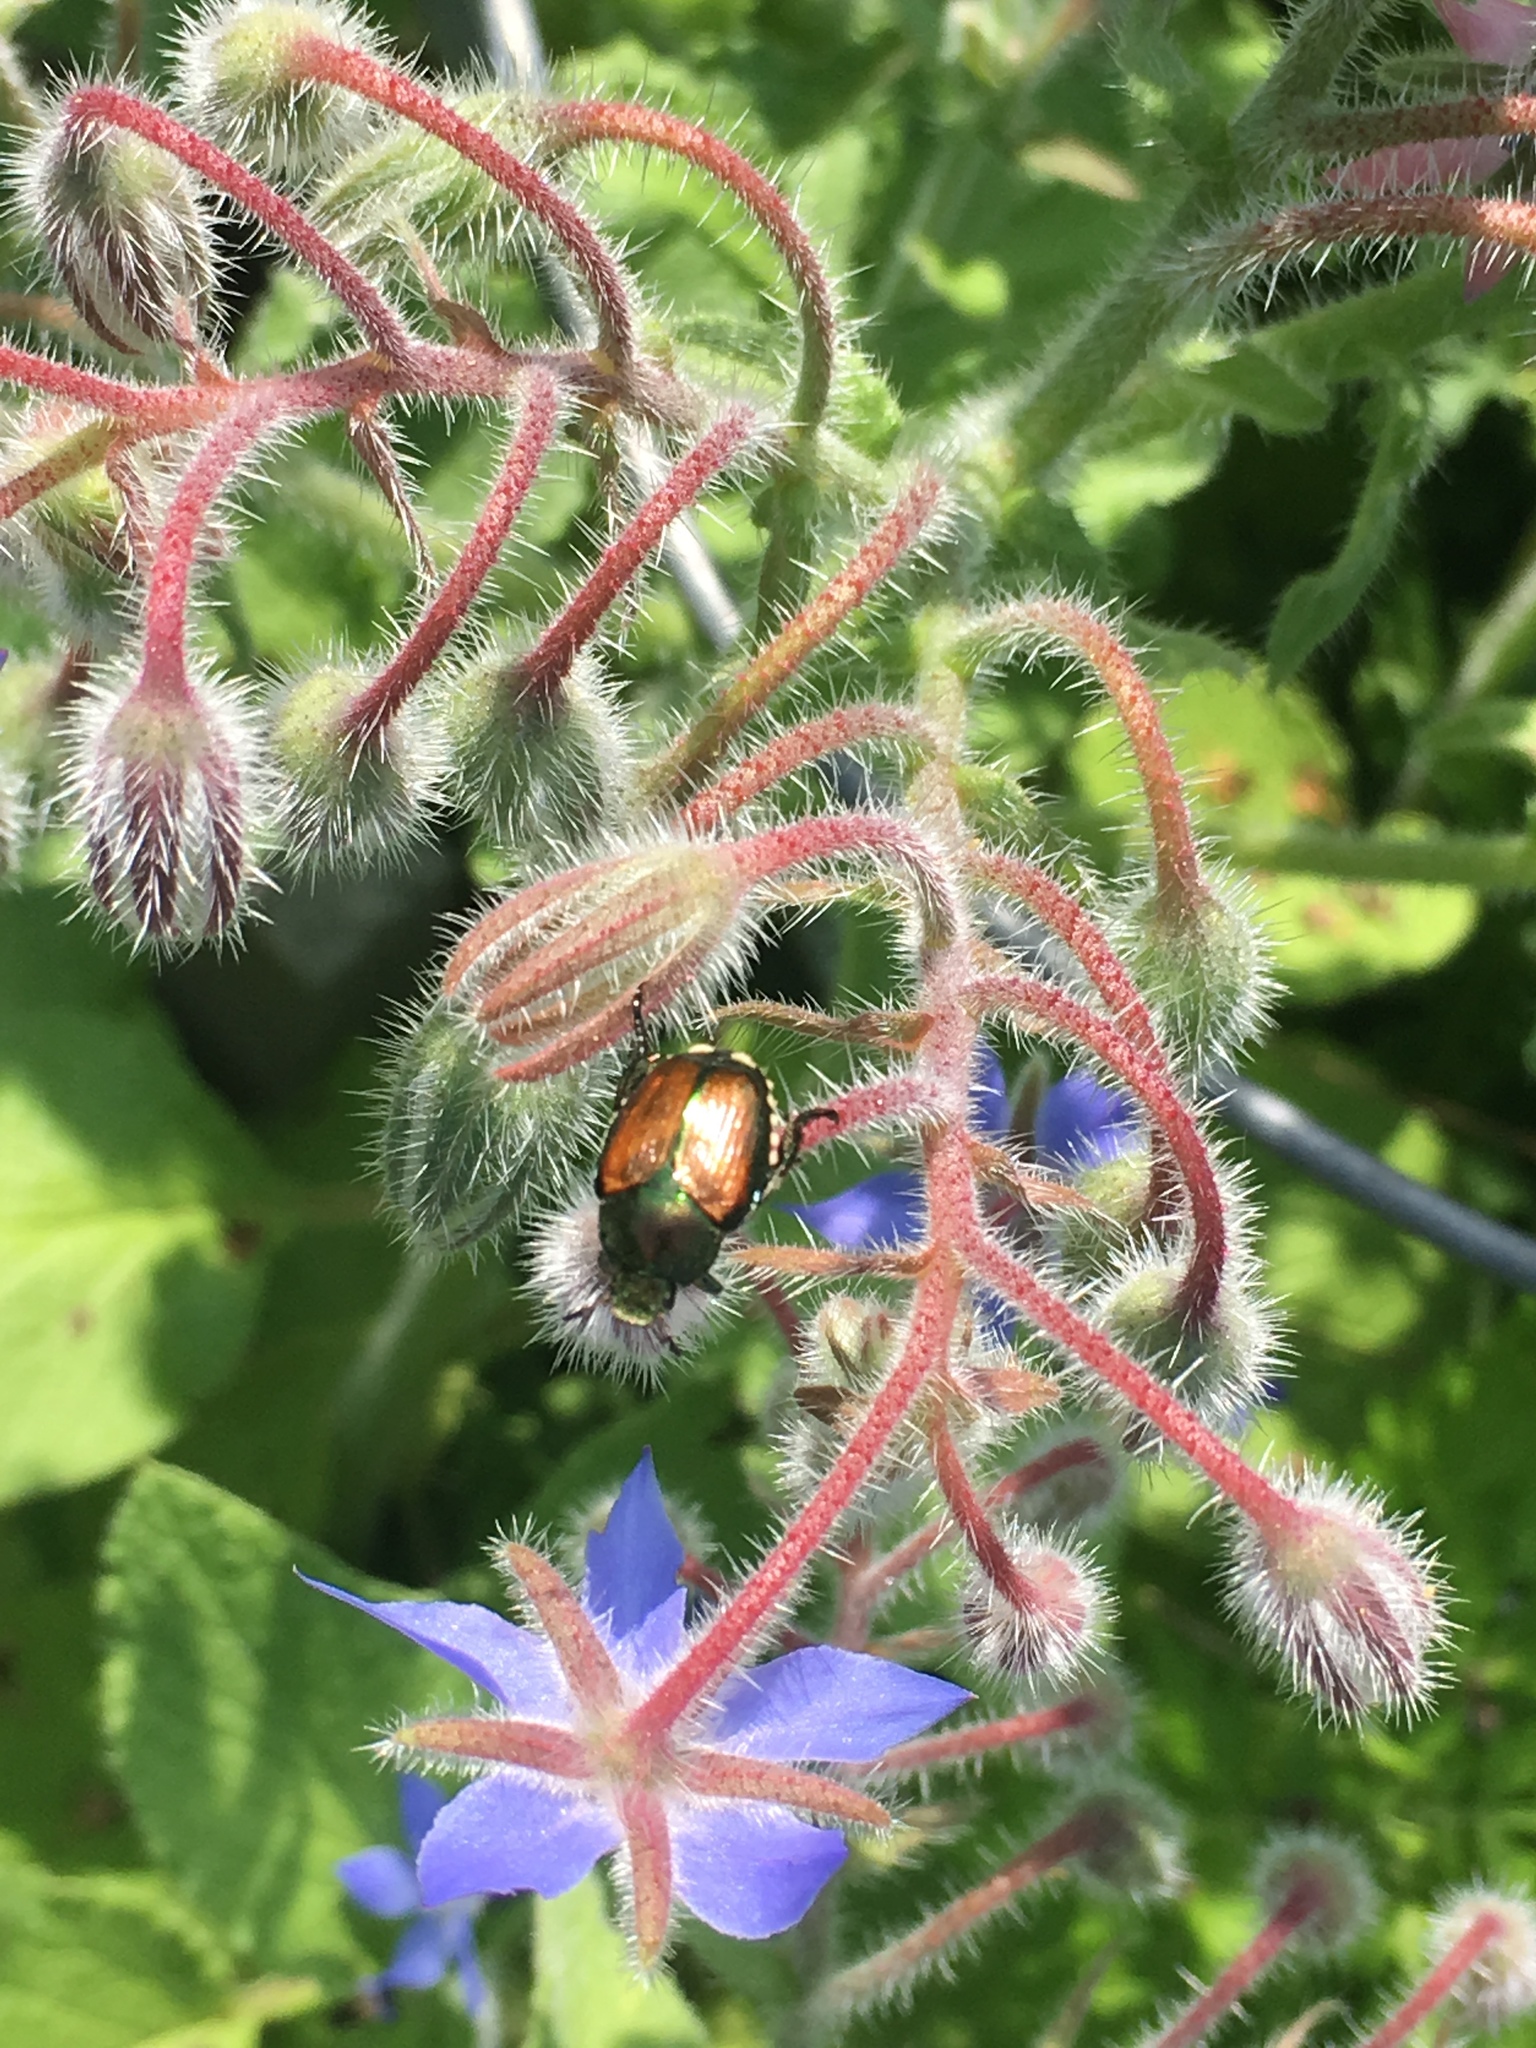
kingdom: Animalia
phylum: Arthropoda
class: Insecta
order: Coleoptera
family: Scarabaeidae
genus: Popillia
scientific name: Popillia japonica
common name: Japanese beetle
